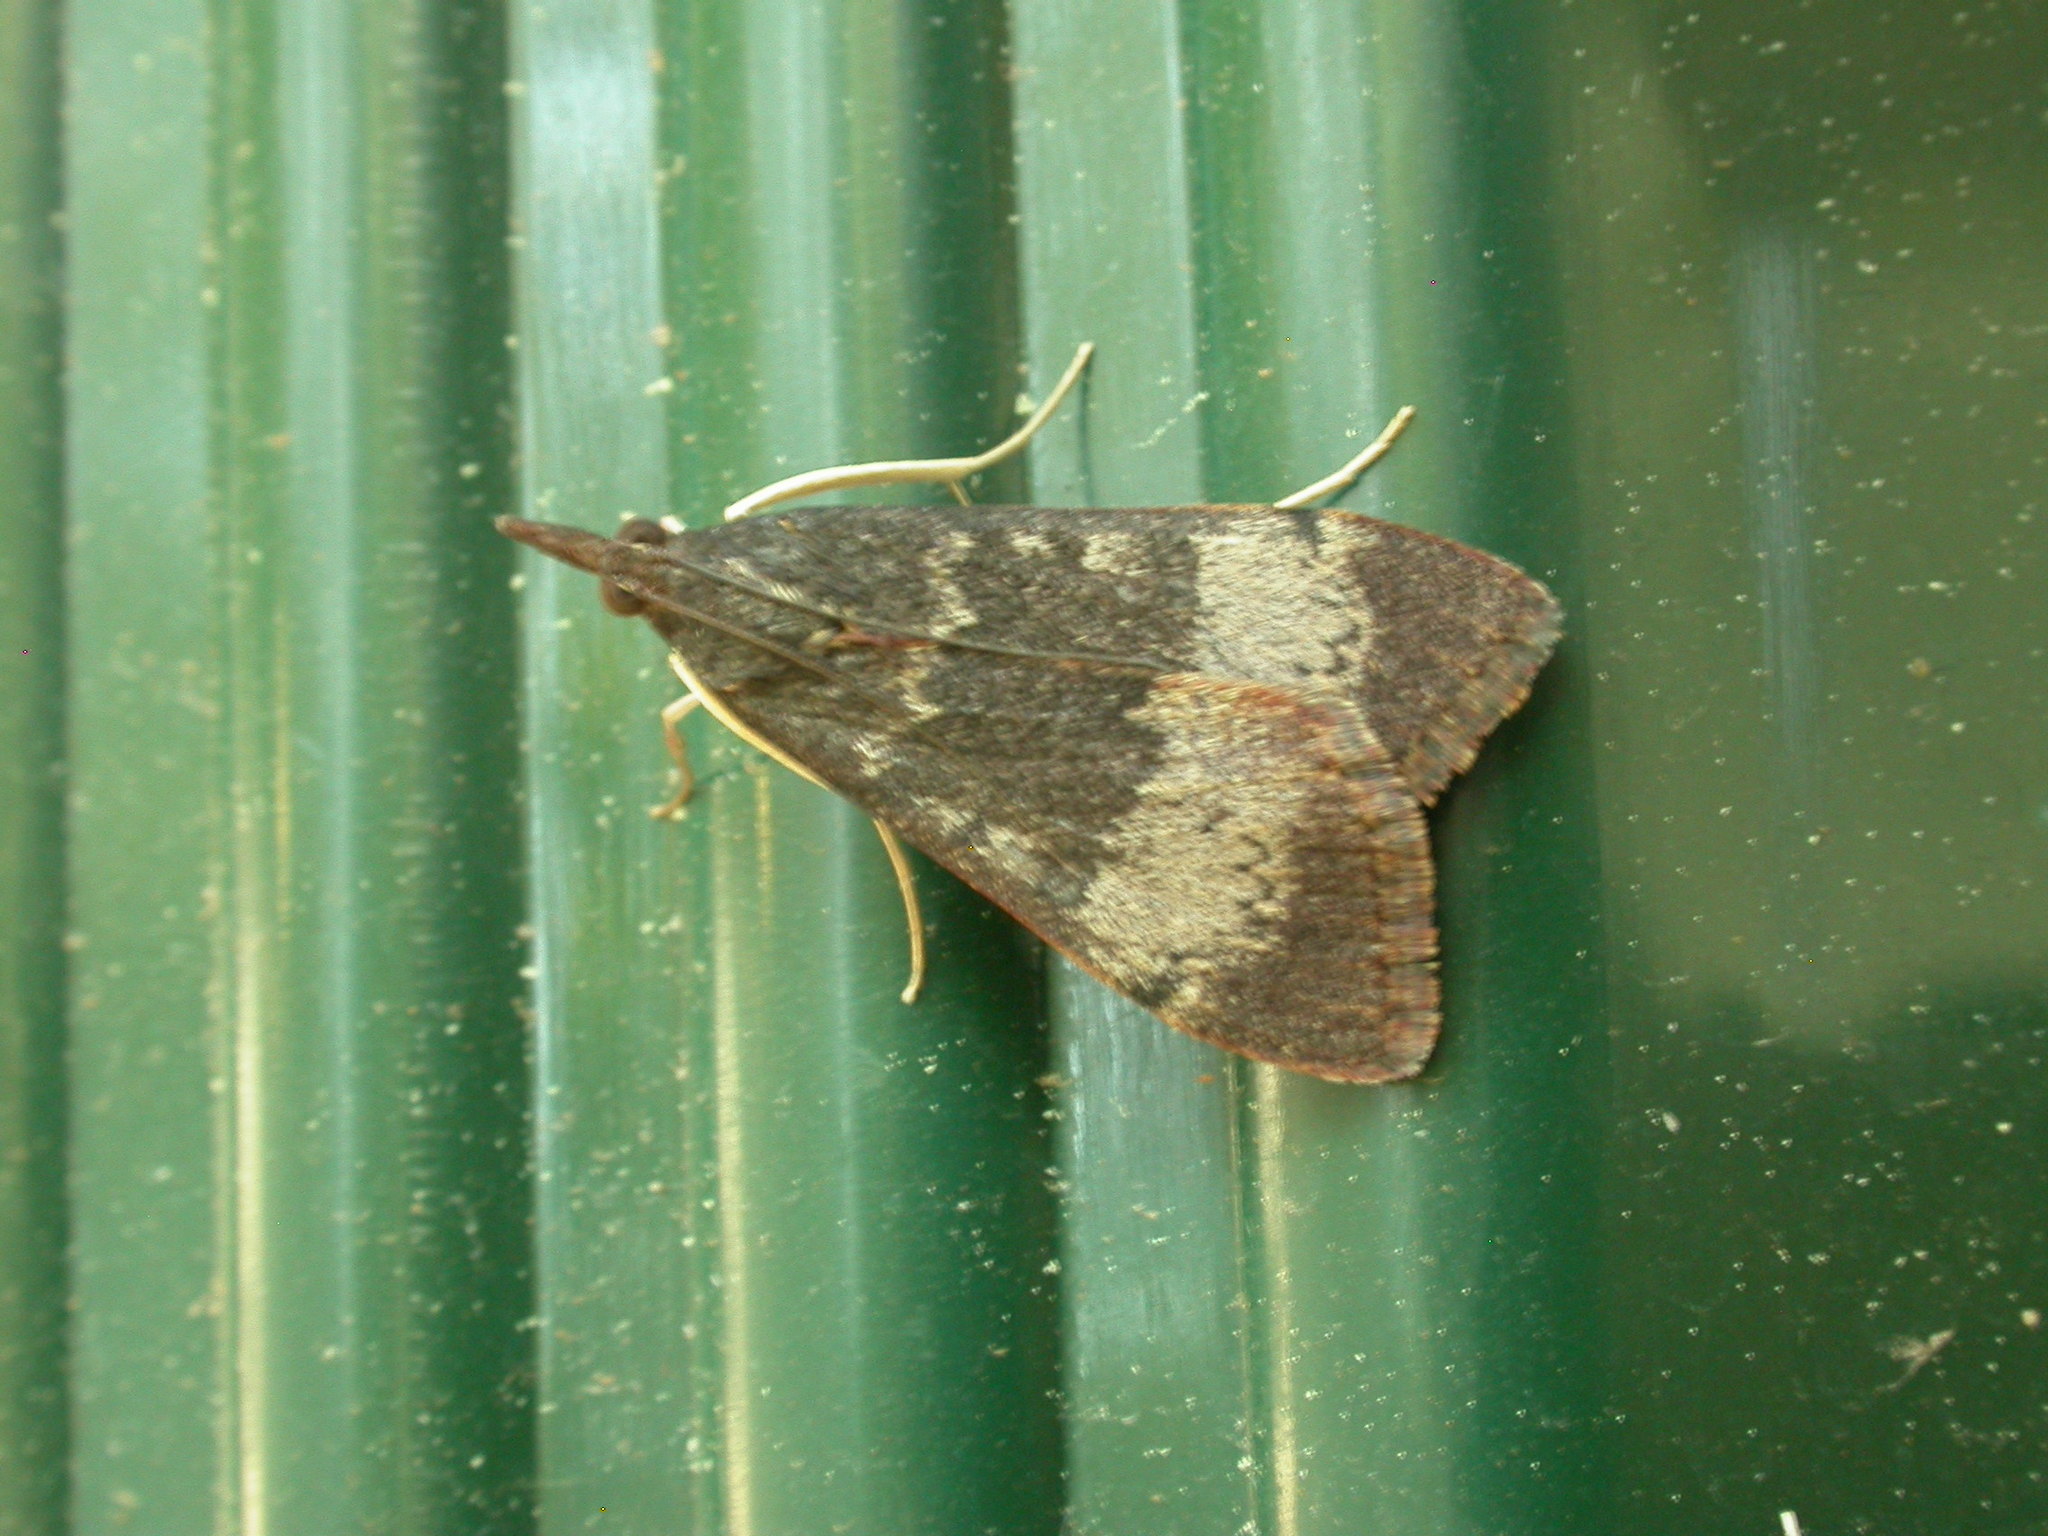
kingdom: Animalia
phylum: Arthropoda
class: Insecta
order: Lepidoptera
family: Crambidae
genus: Uresiphita
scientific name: Uresiphita ornithopteralis
